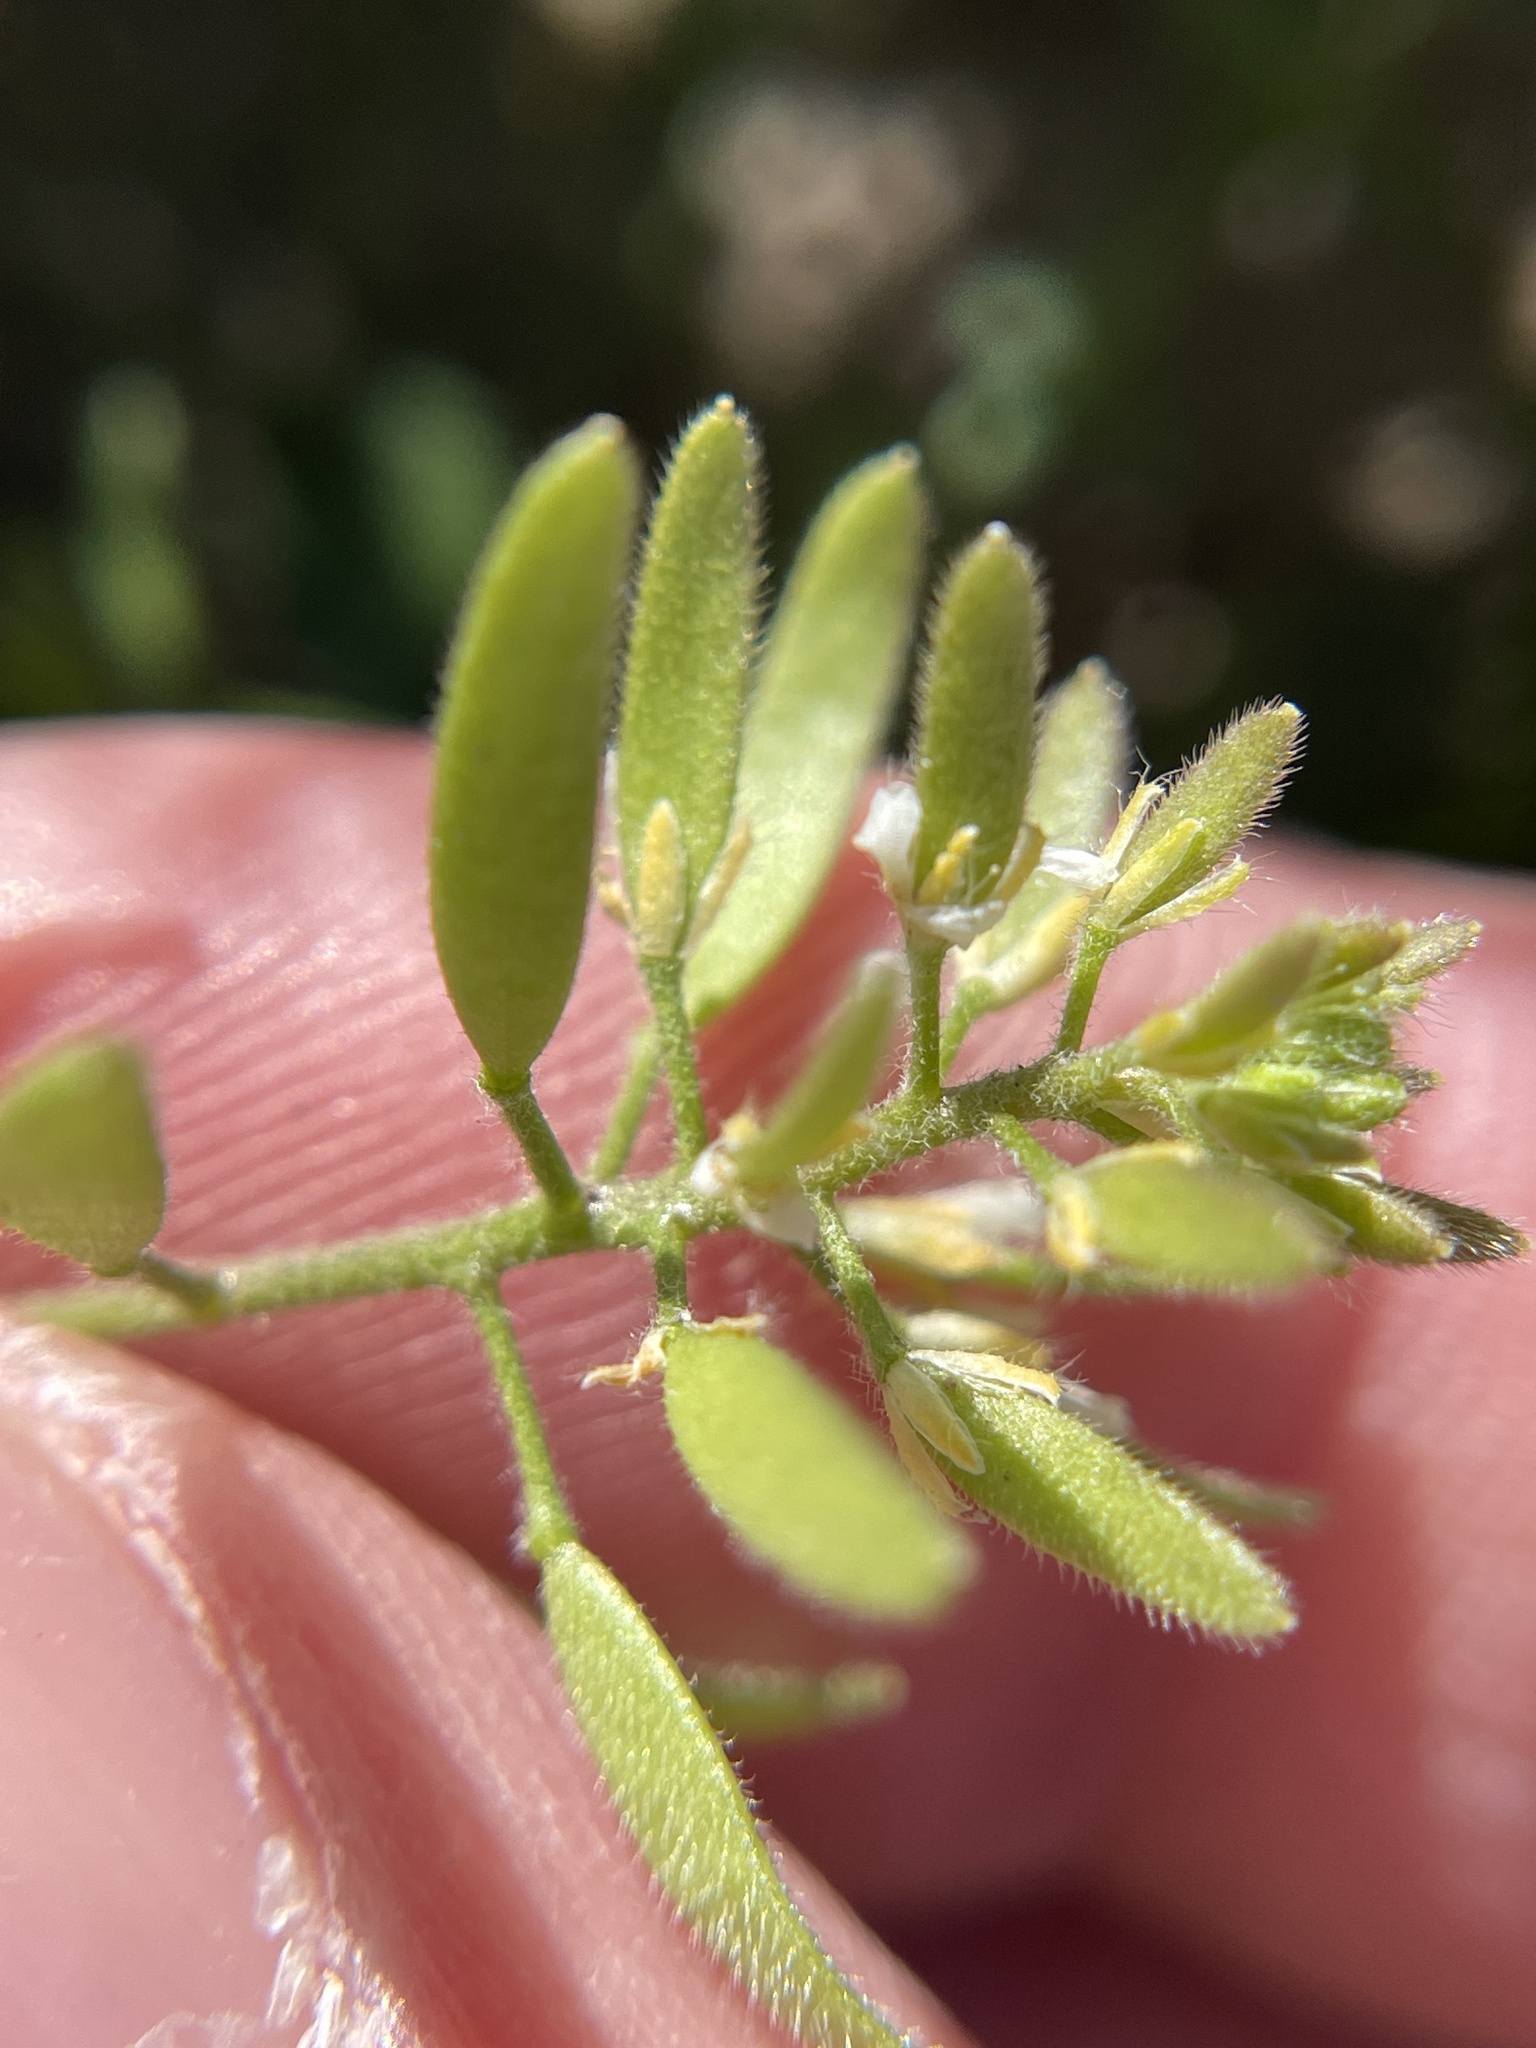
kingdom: Plantae
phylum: Tracheophyta
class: Magnoliopsida
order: Brassicales
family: Brassicaceae
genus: Tomostima
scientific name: Tomostima cuneifolia
